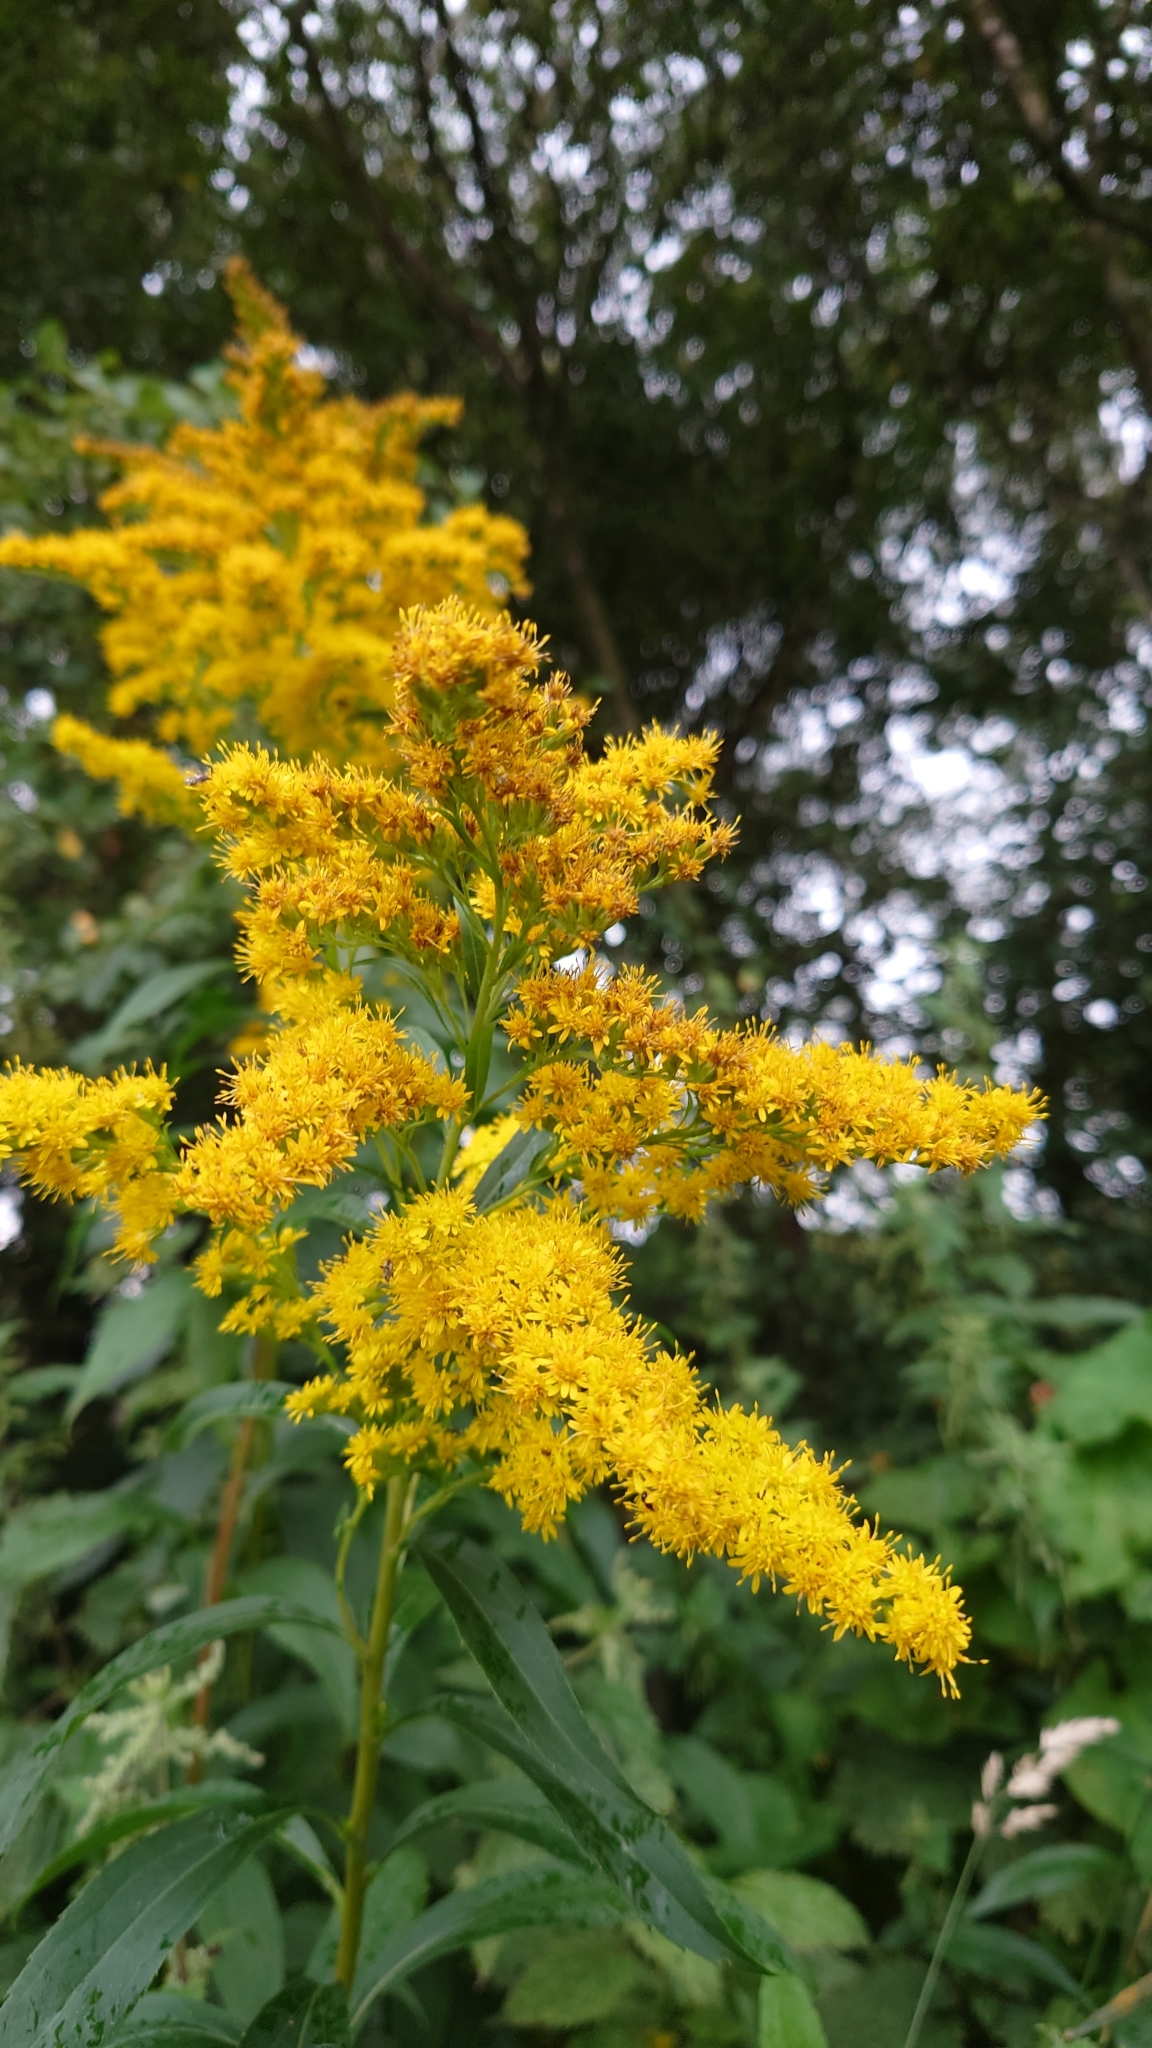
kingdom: Plantae
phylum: Tracheophyta
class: Magnoliopsida
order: Asterales
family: Asteraceae
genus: Solidago
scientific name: Solidago canadensis
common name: Canada goldenrod
